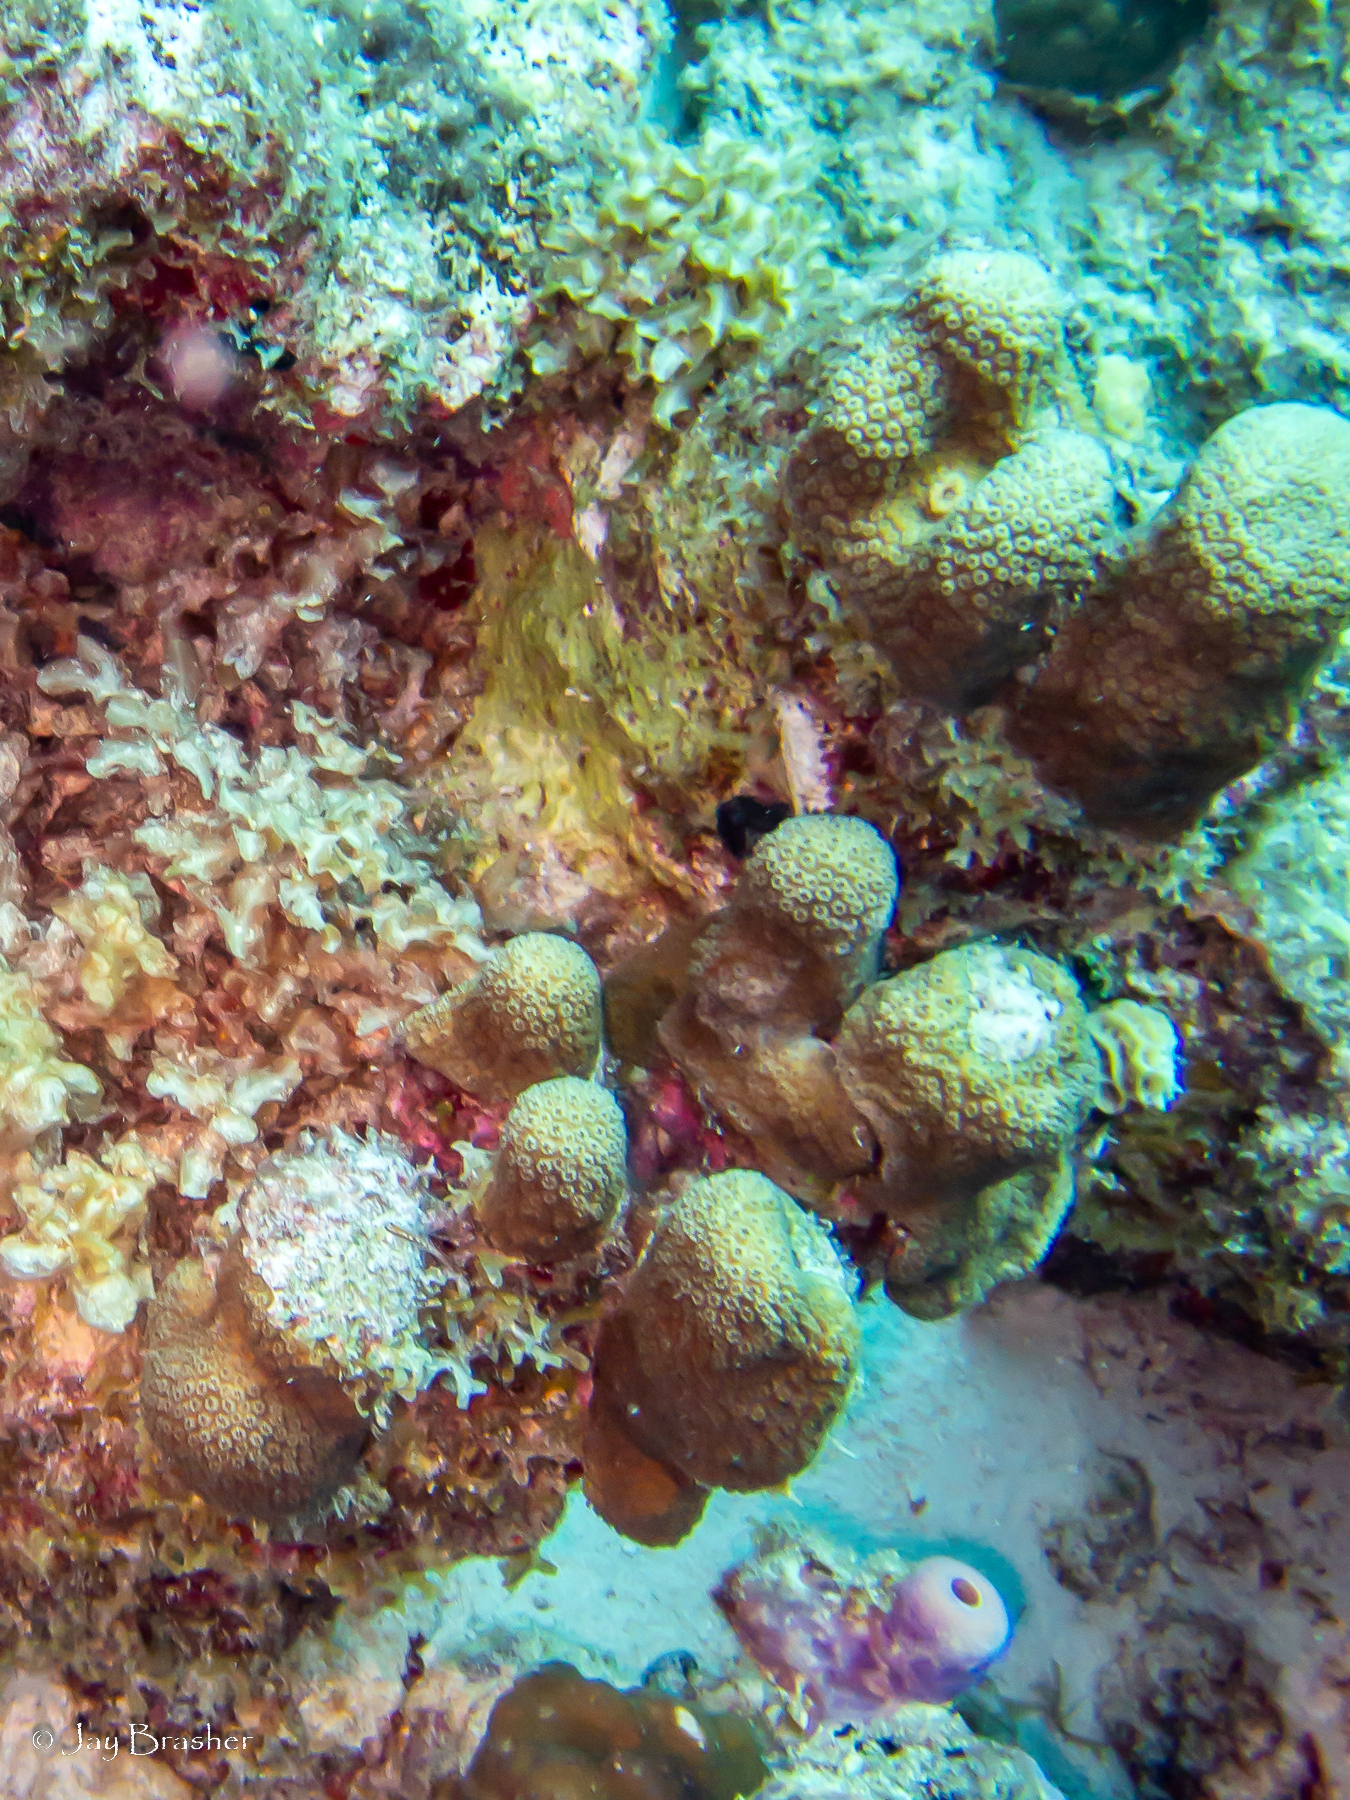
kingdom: Animalia
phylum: Porifera
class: Demospongiae
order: Verongiida
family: Aplysinidae
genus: Aplysina
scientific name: Aplysina archeri
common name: Stove-pipe sponge
